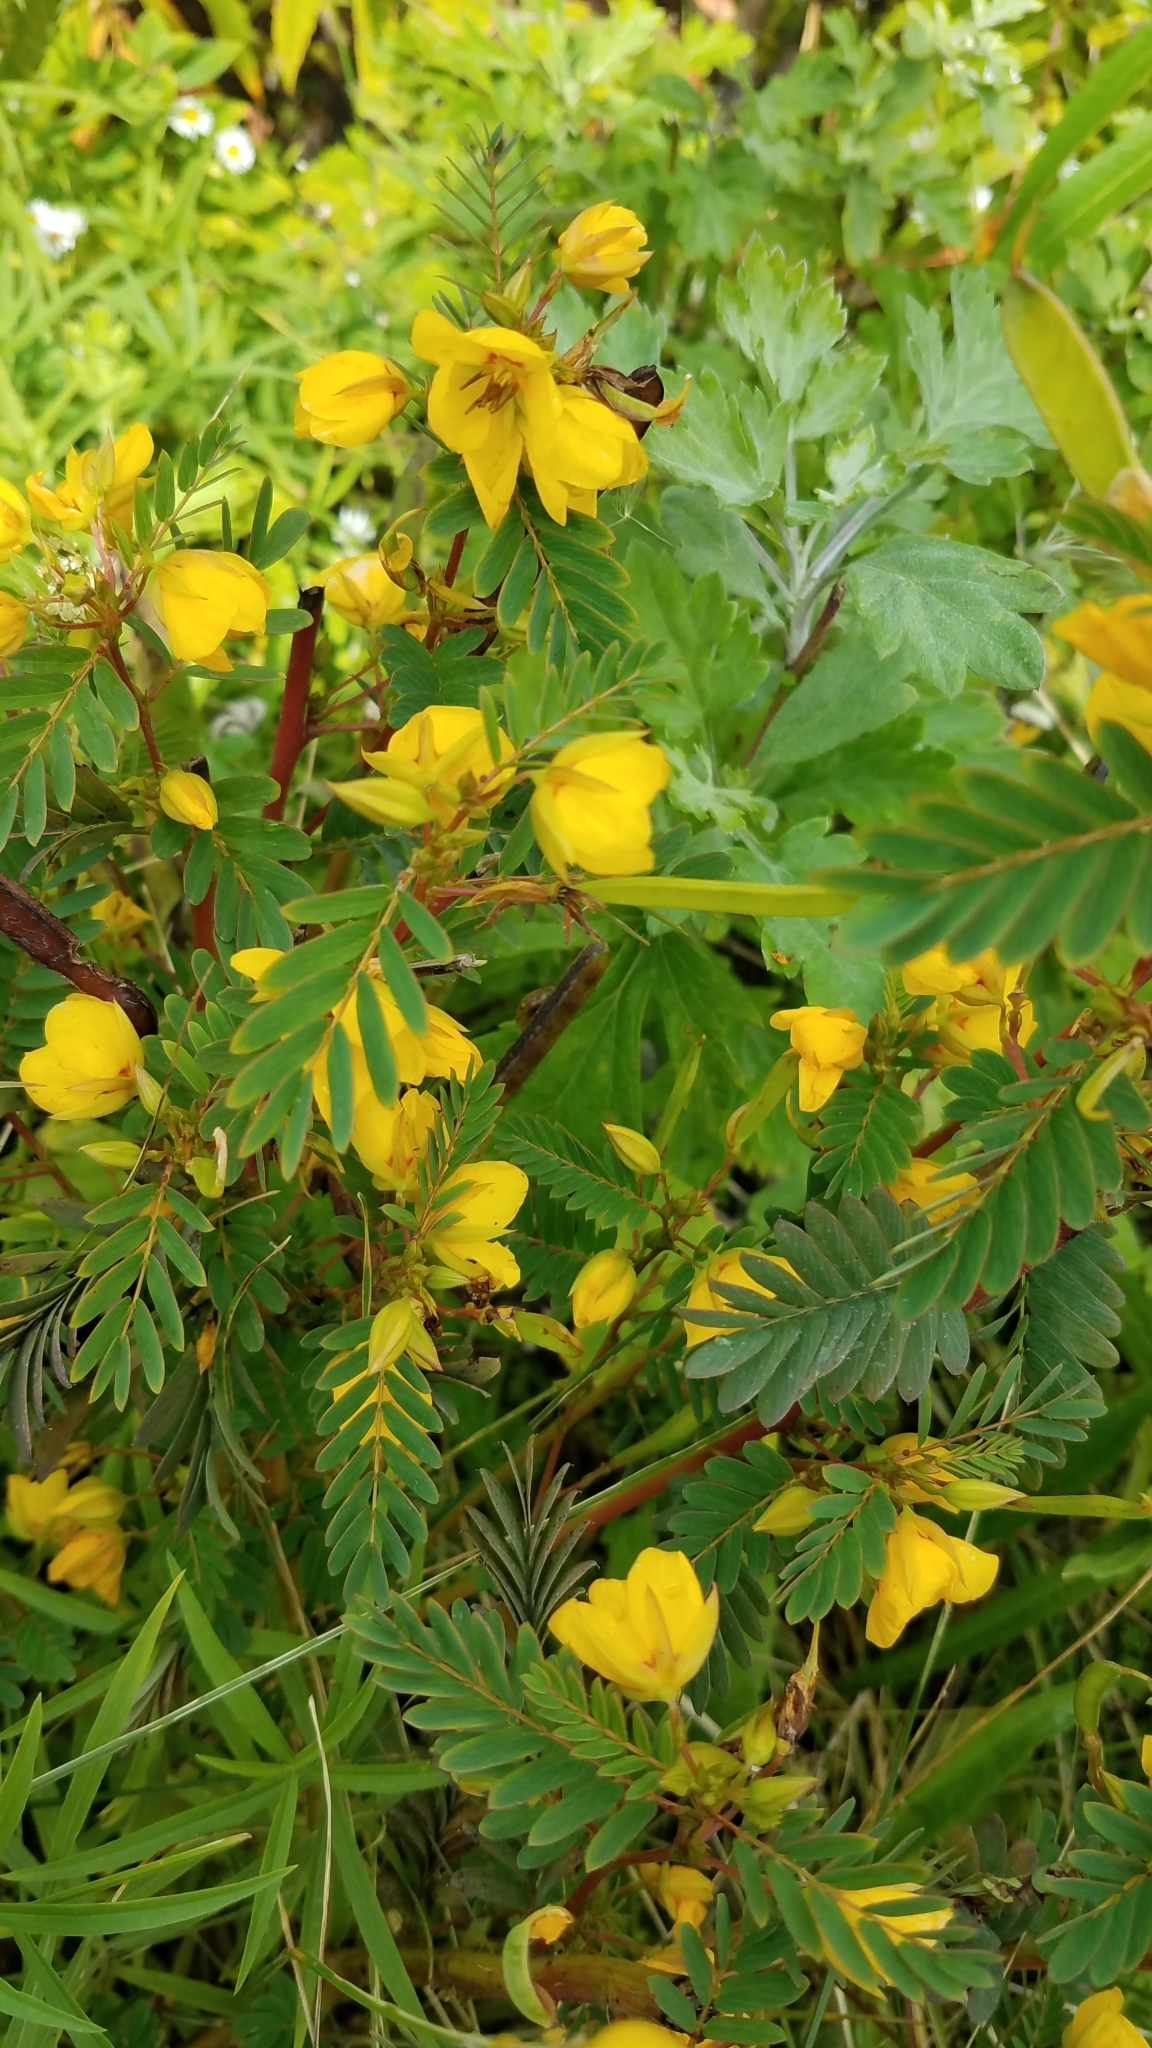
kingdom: Plantae
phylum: Tracheophyta
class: Magnoliopsida
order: Fabales
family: Fabaceae
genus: Chamaecrista
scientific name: Chamaecrista fasciculata
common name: Golden cassia
